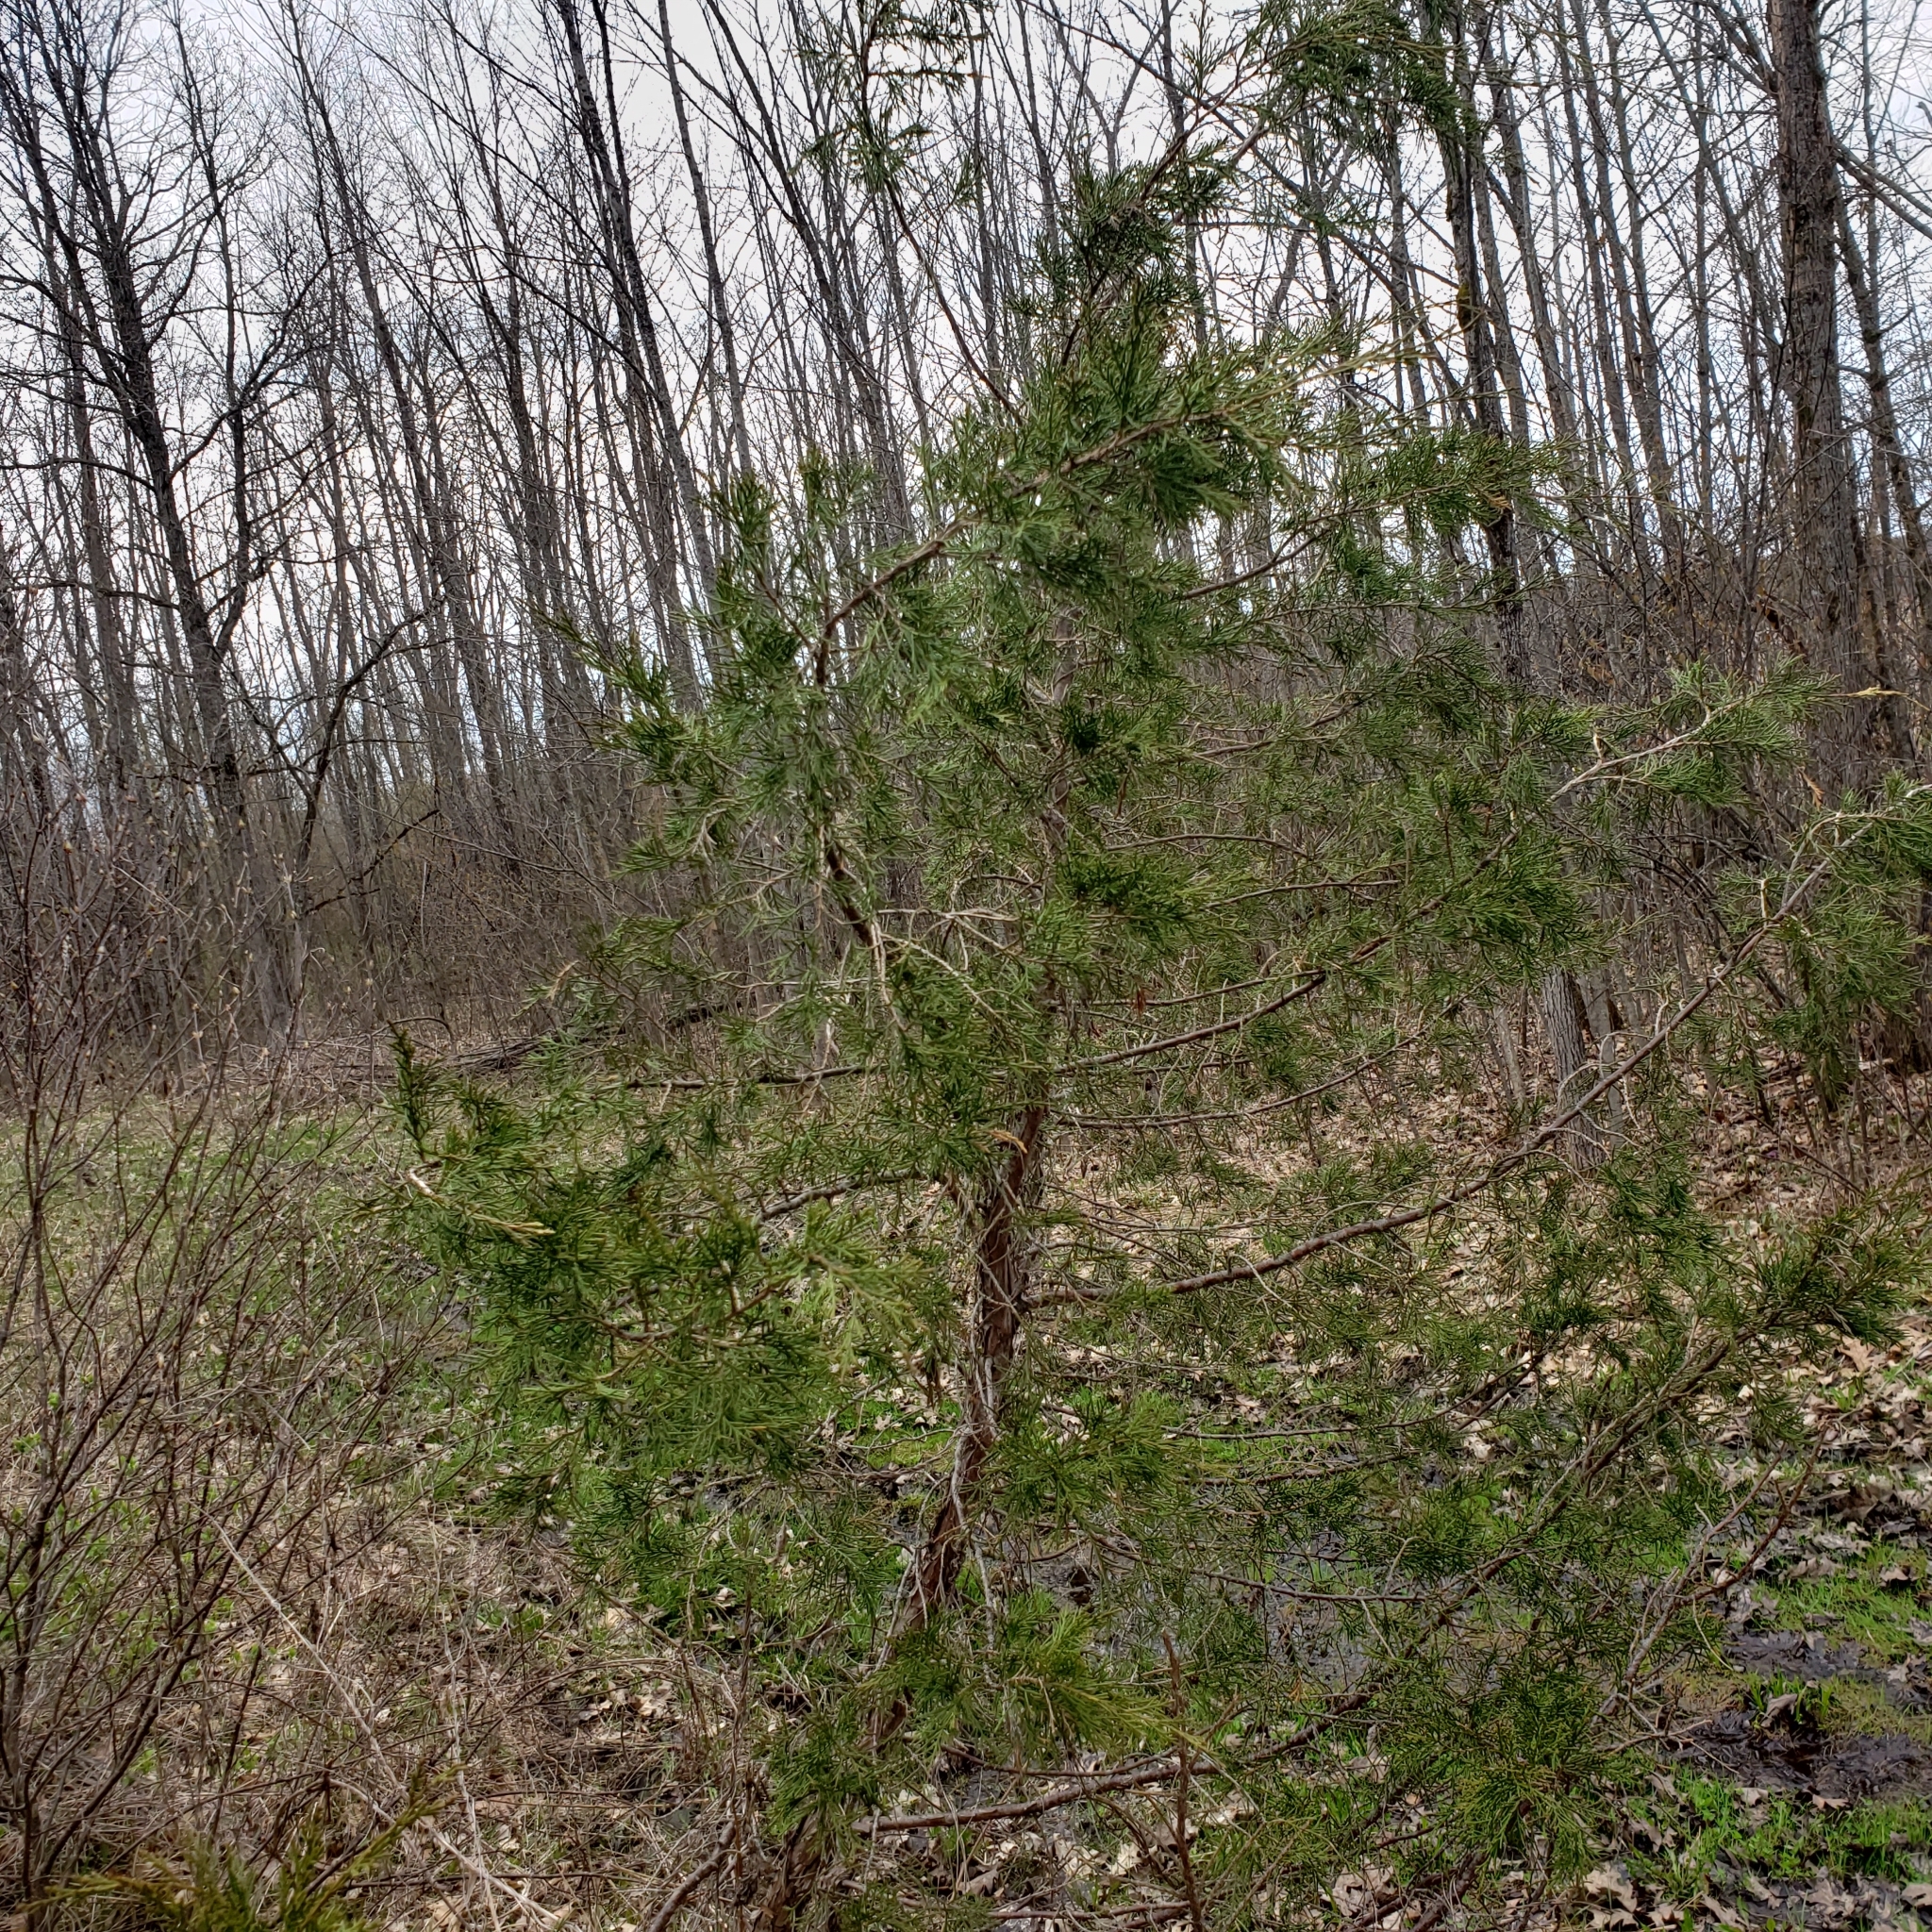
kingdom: Plantae
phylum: Tracheophyta
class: Pinopsida
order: Pinales
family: Cupressaceae
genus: Juniperus
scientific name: Juniperus virginiana
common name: Red juniper
